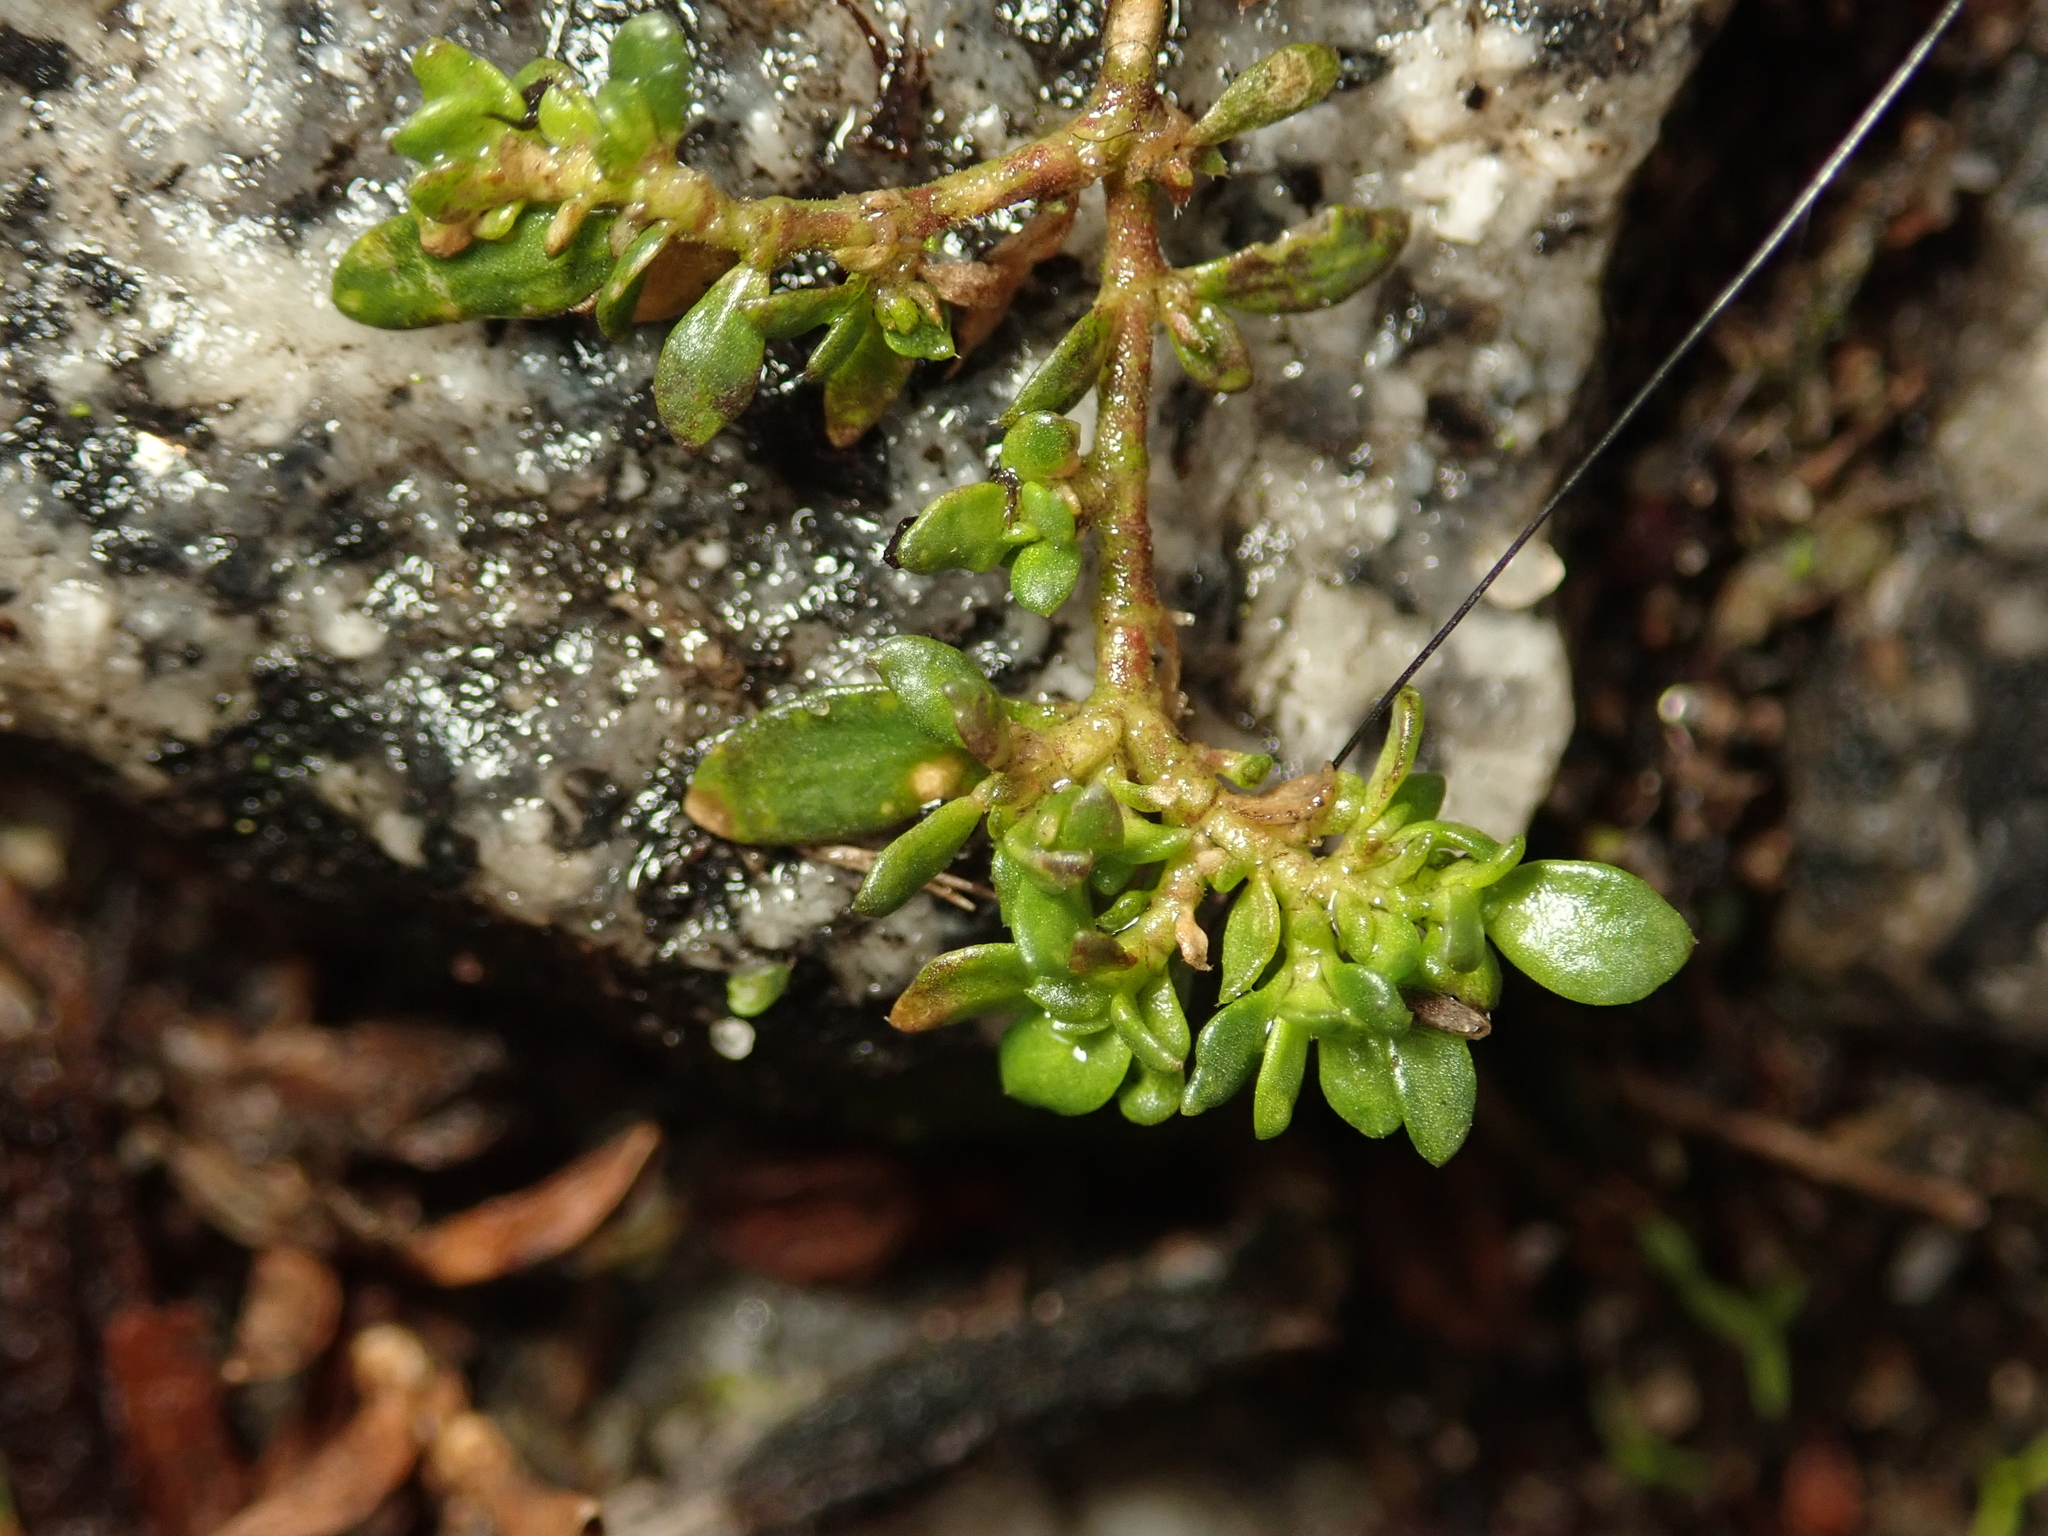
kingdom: Plantae
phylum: Tracheophyta
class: Magnoliopsida
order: Caryophyllales
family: Caryophyllaceae
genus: Herniaria
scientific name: Herniaria glabra
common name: Smooth rupturewort
